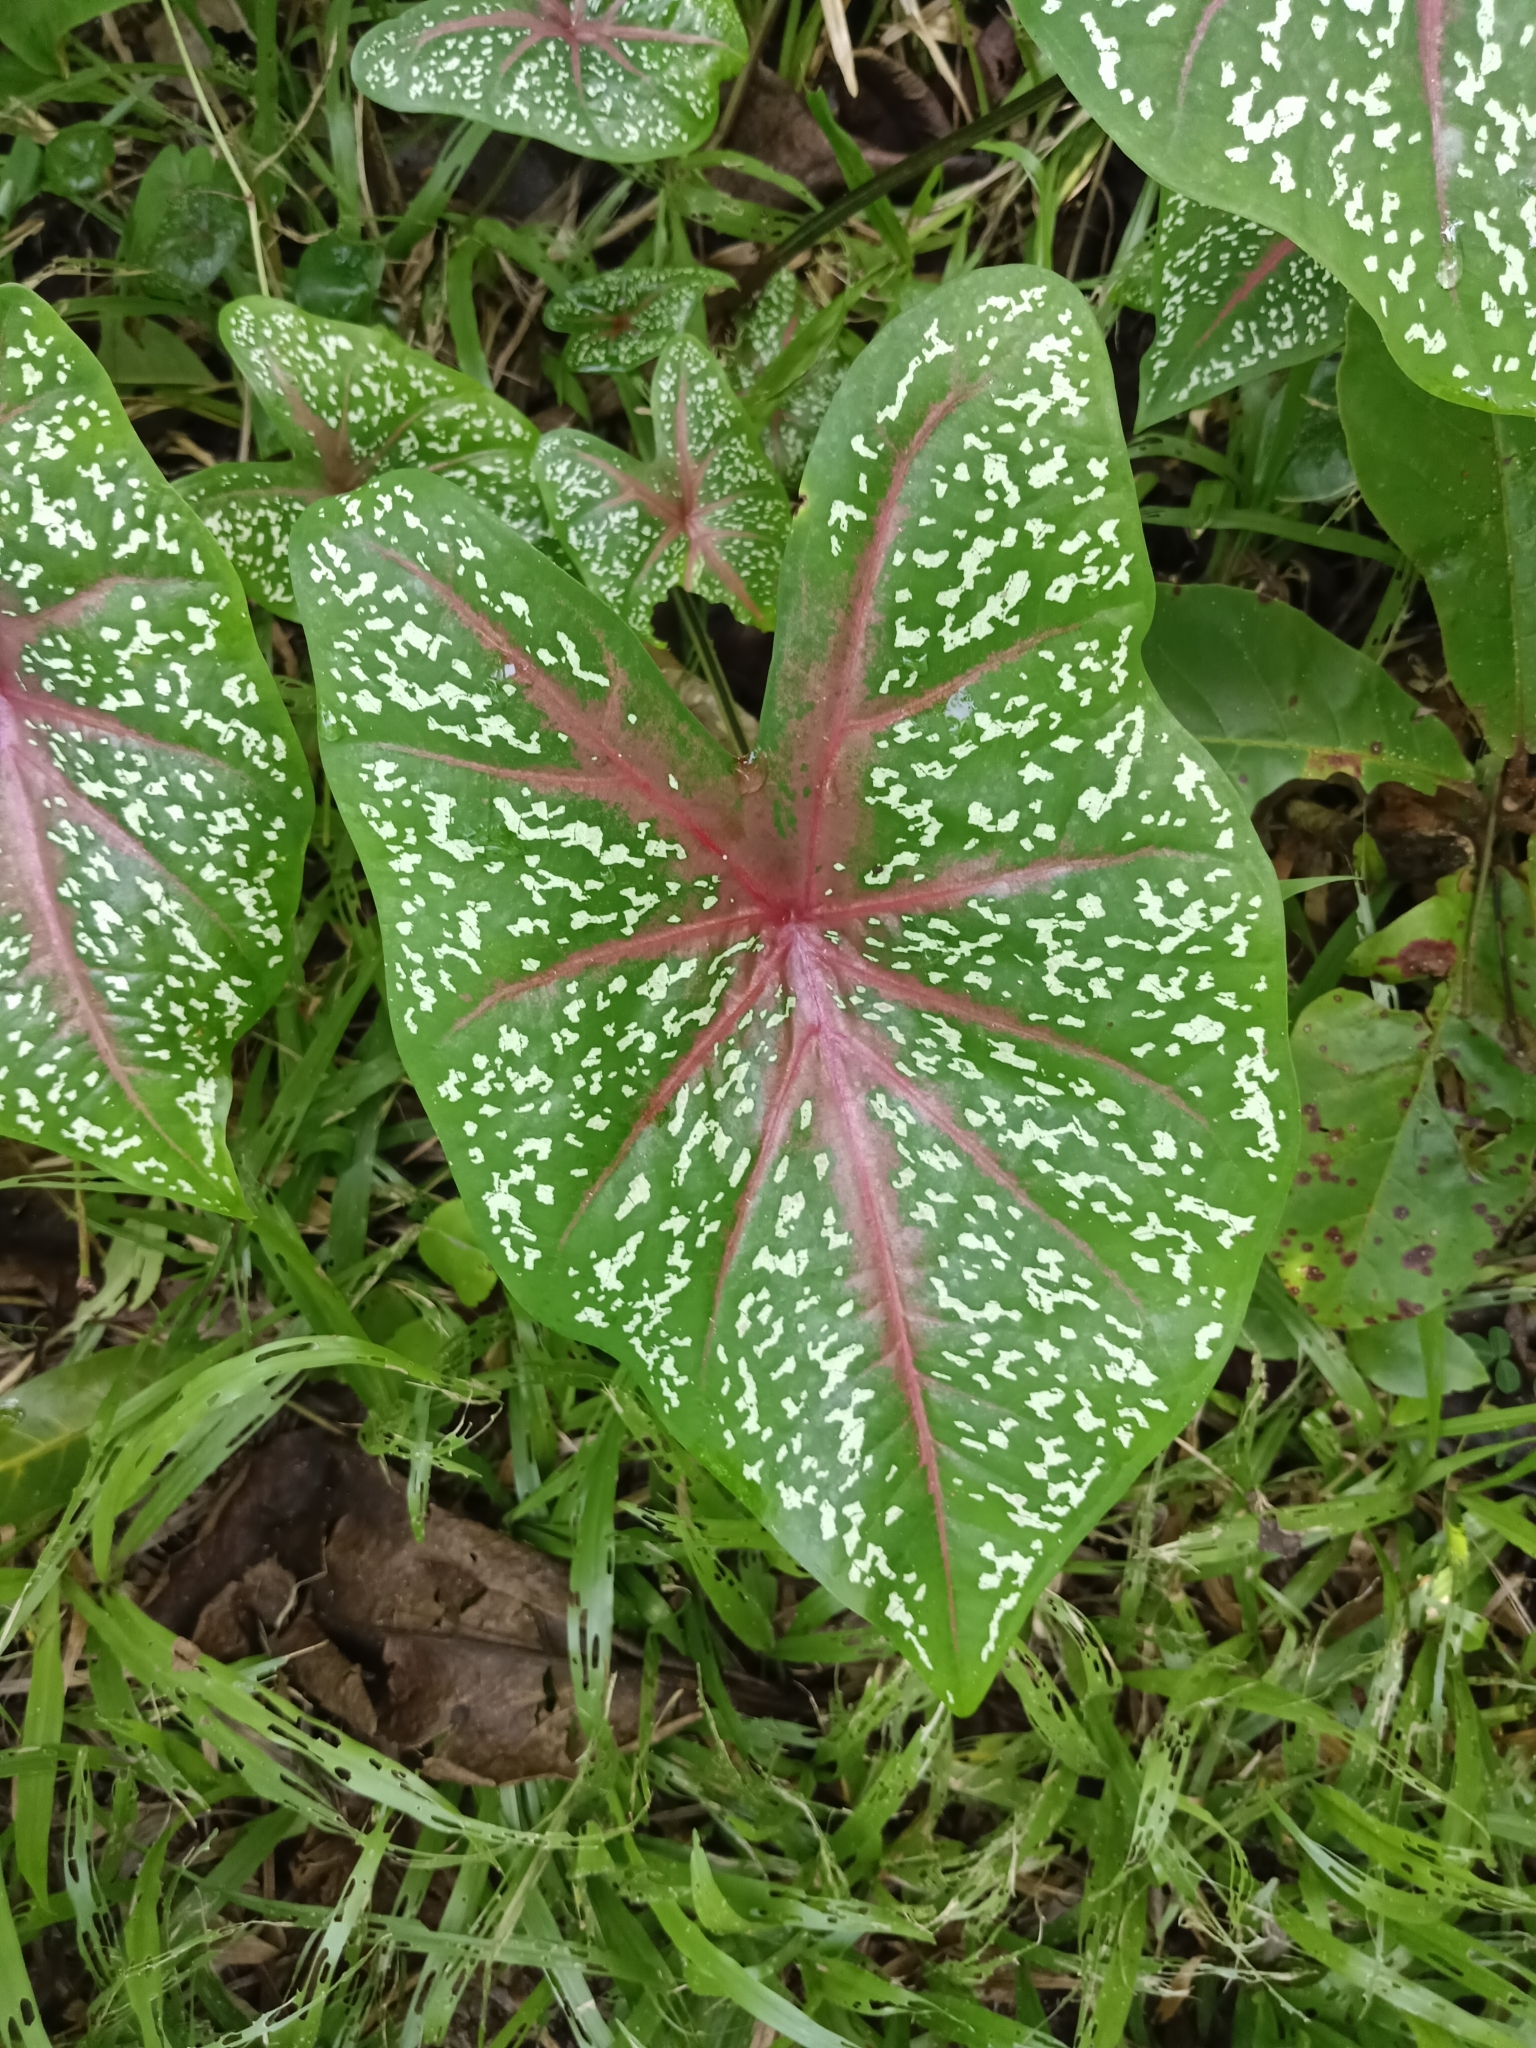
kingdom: Plantae
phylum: Tracheophyta
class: Liliopsida
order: Alismatales
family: Araceae
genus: Caladium
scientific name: Caladium bicolor
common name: Artist's pallet
